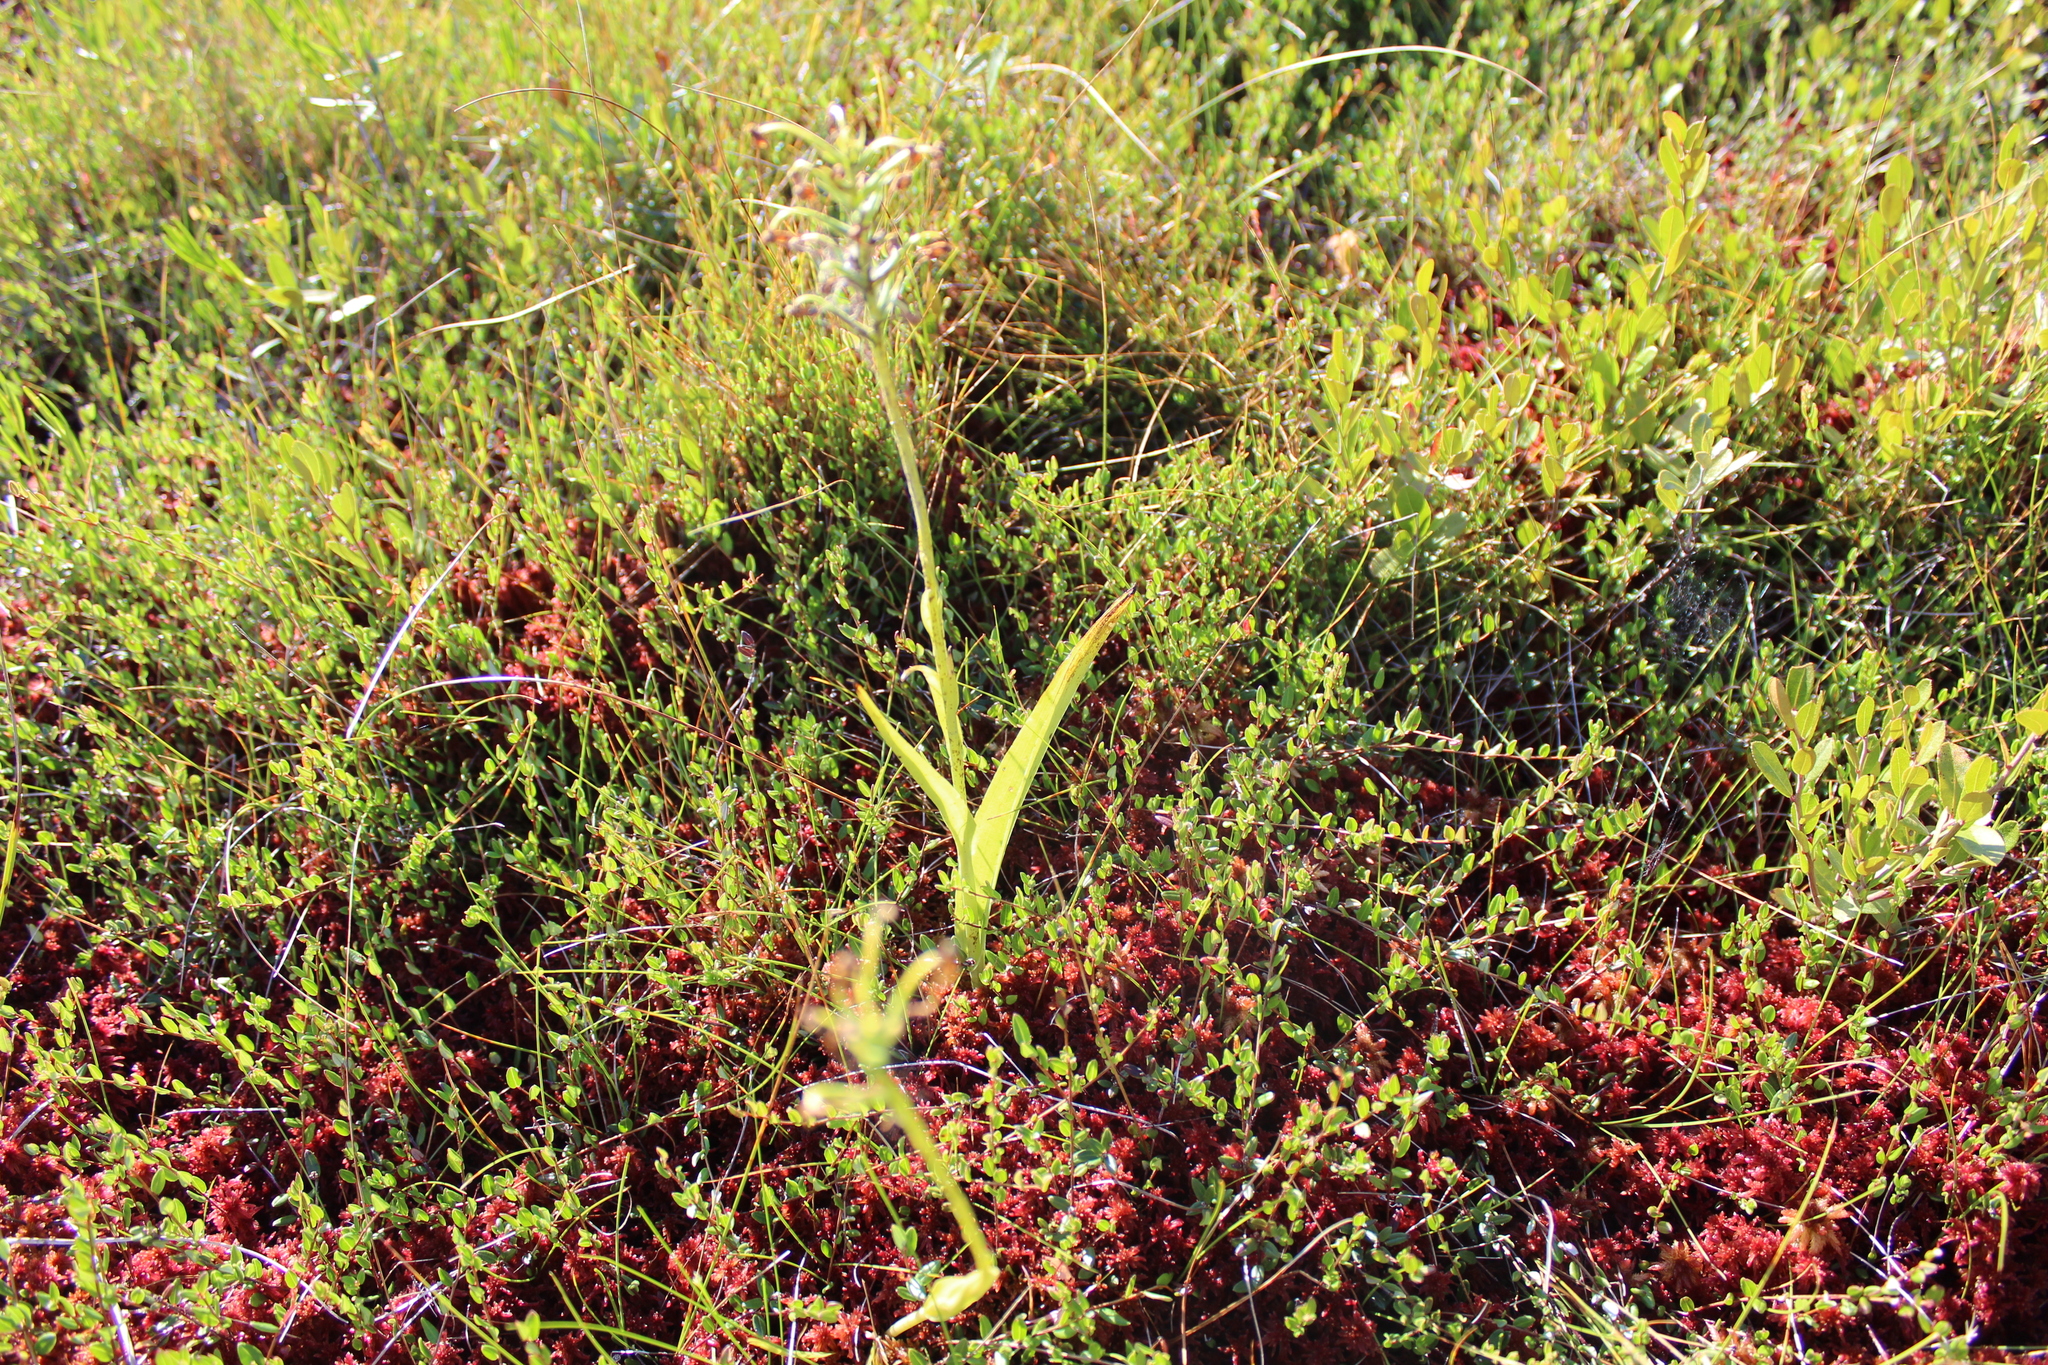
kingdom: Plantae
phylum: Tracheophyta
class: Liliopsida
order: Asparagales
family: Orchidaceae
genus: Platanthera
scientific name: Platanthera blephariglottis
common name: White fringed orchid
